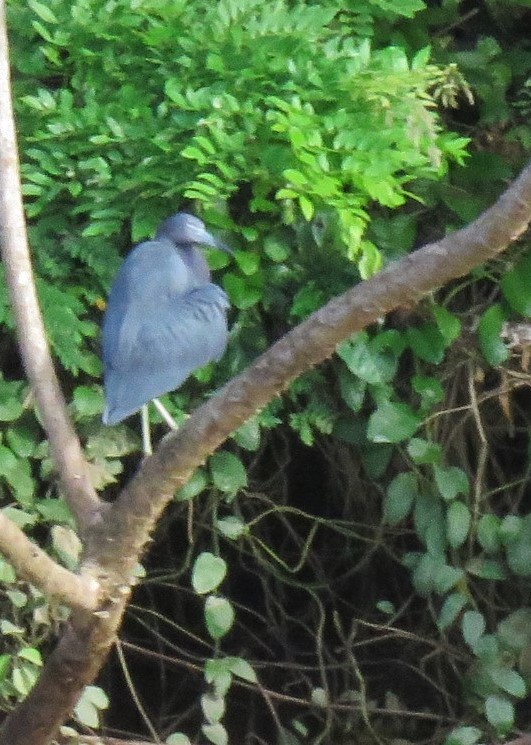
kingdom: Animalia
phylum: Chordata
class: Aves
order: Pelecaniformes
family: Ardeidae
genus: Egretta
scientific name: Egretta caerulea
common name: Little blue heron
